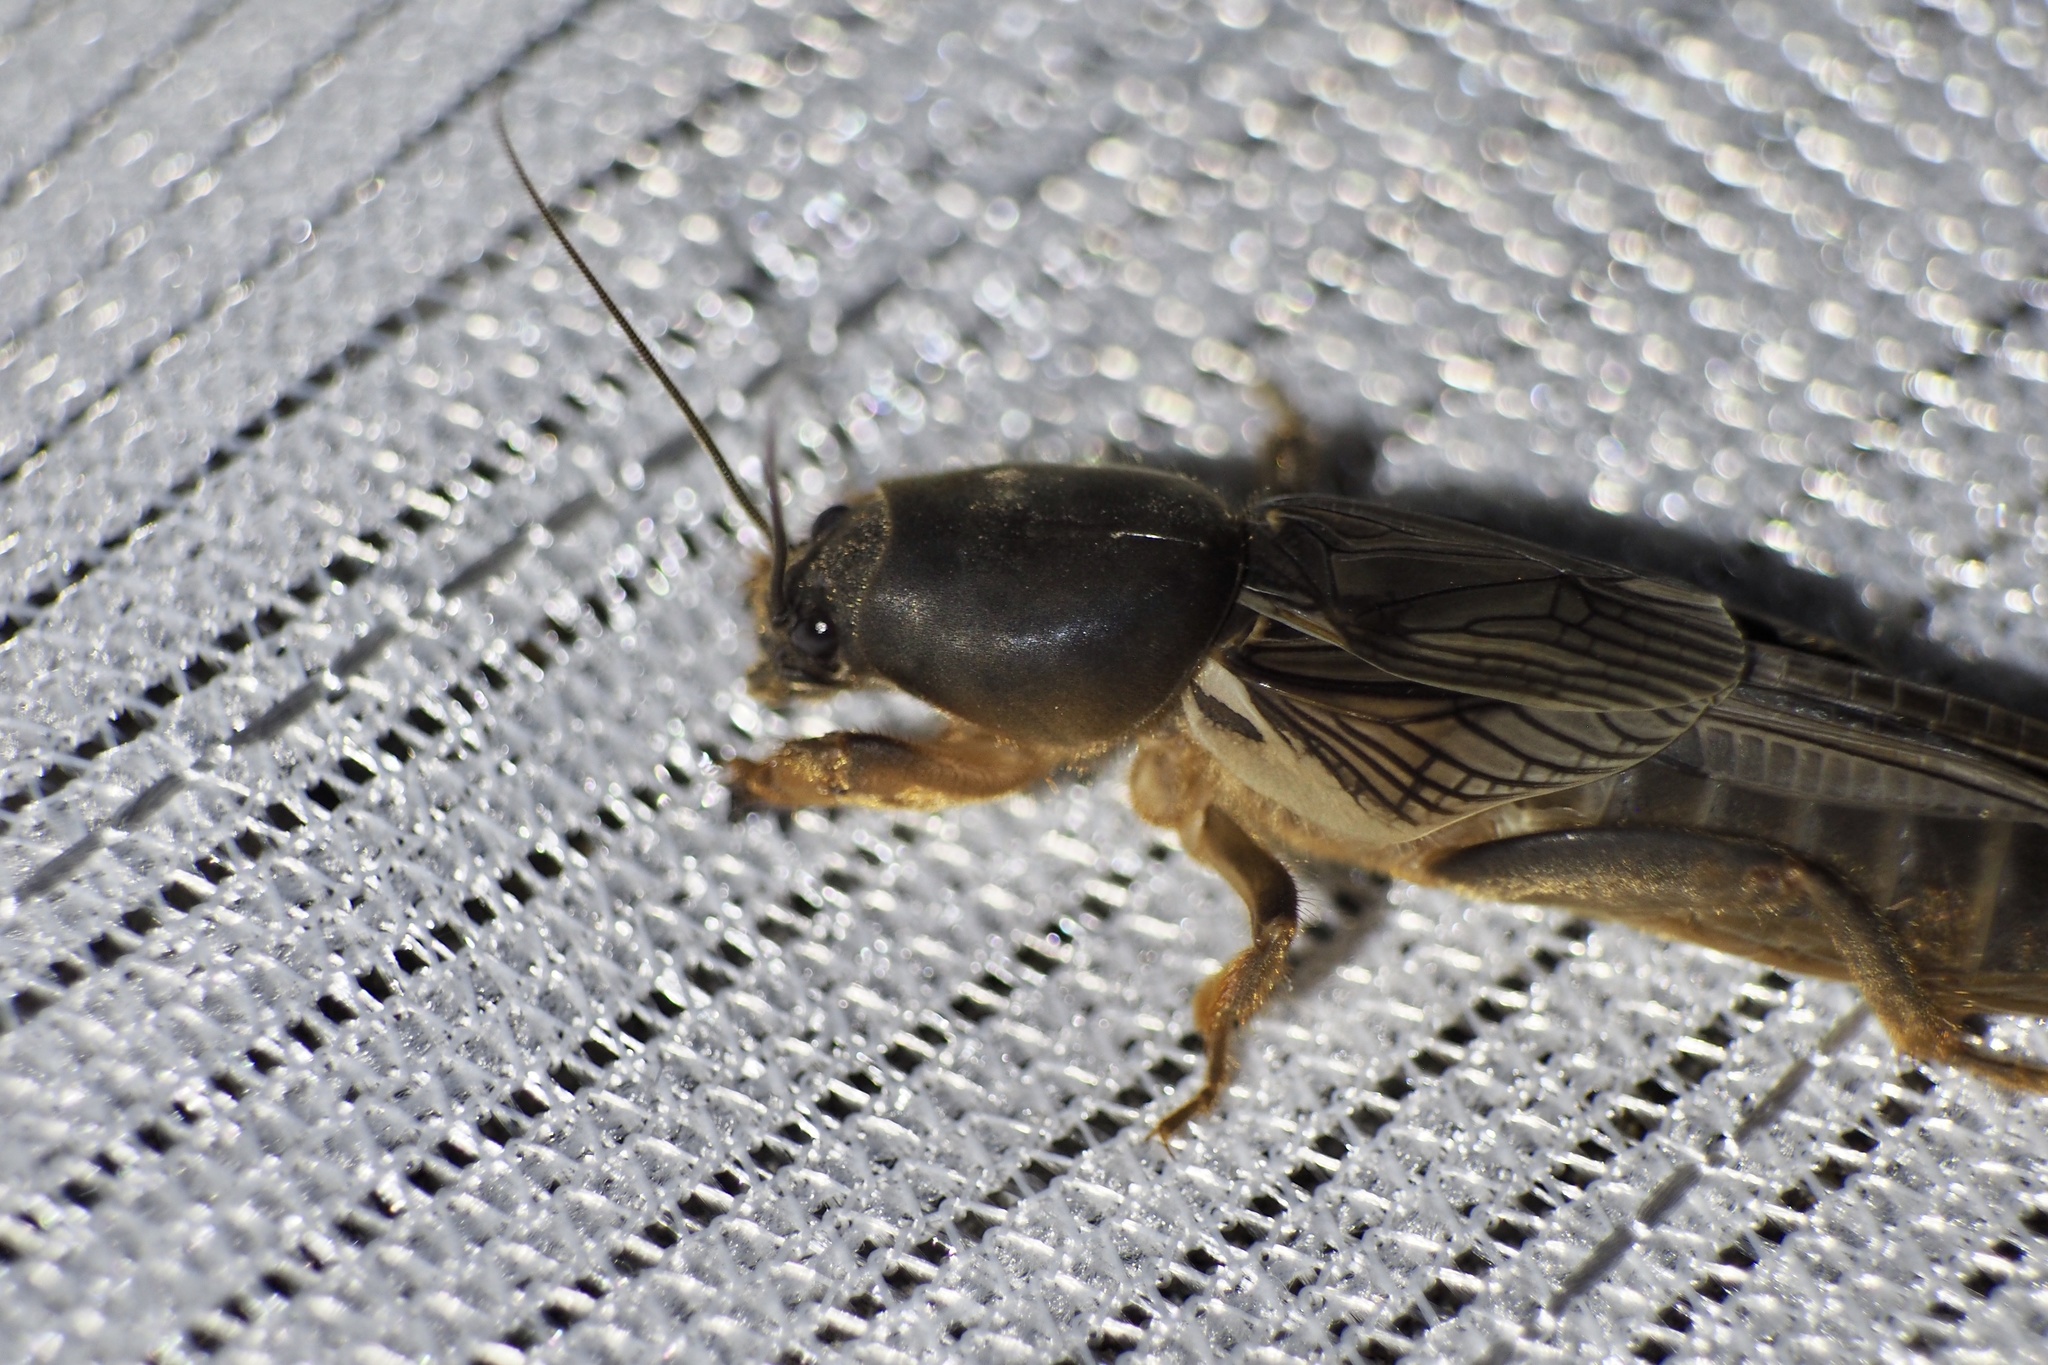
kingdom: Animalia
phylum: Arthropoda
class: Insecta
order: Orthoptera
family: Gryllotalpidae
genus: Gryllotalpa
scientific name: Gryllotalpa orientalis
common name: Grasshopper
